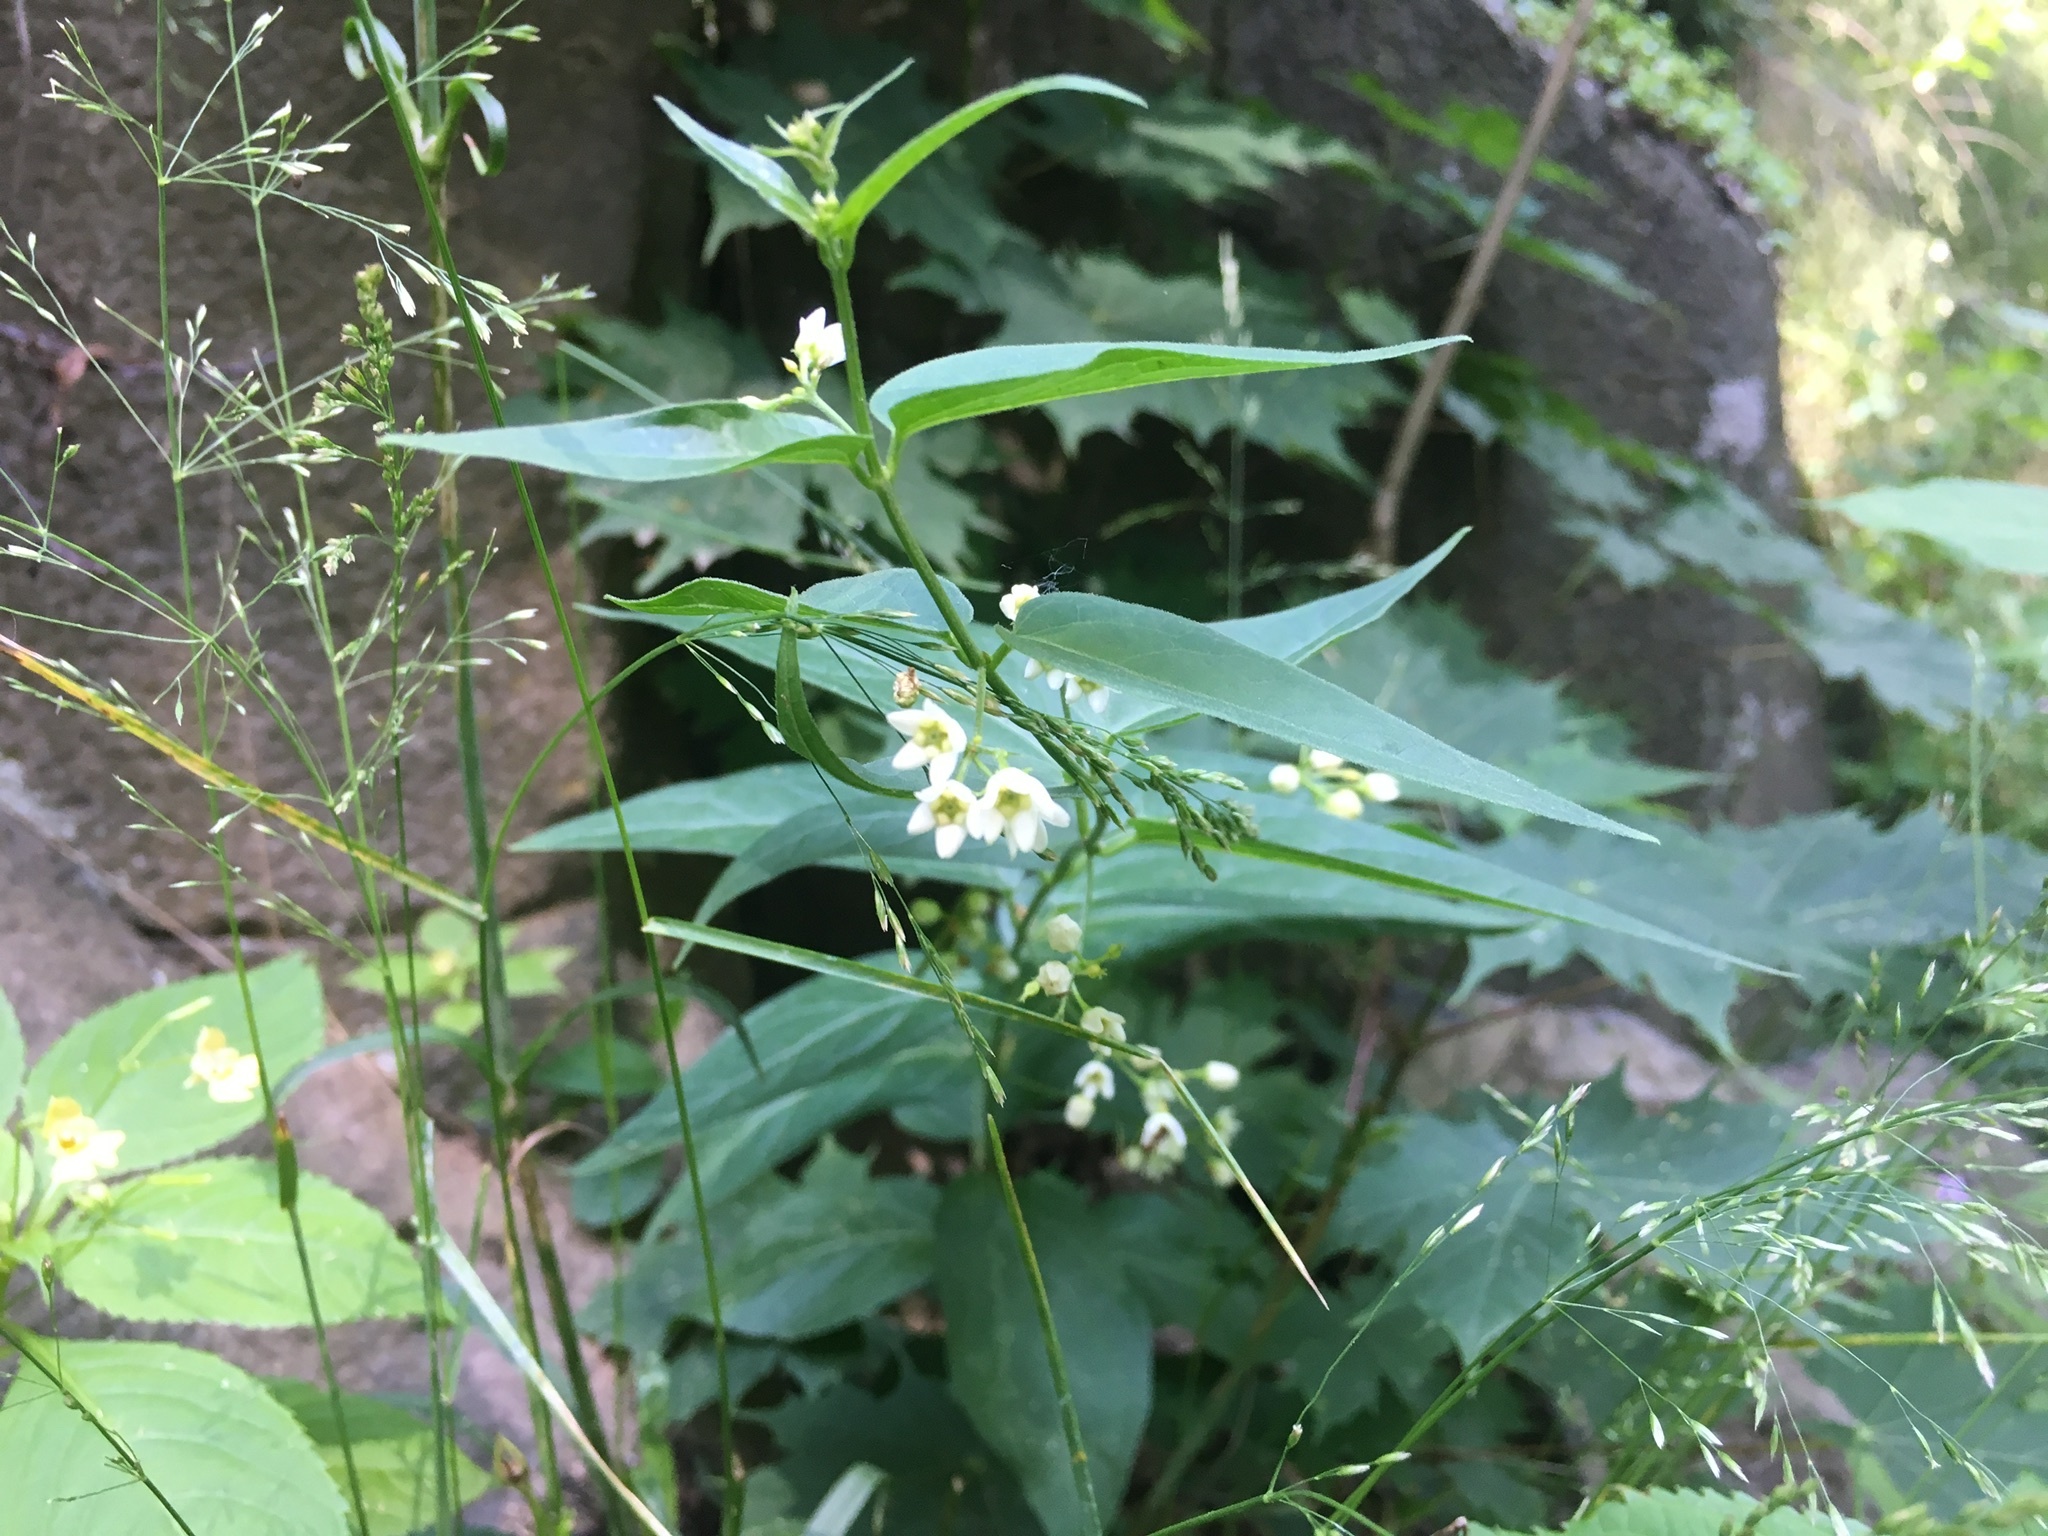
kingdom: Plantae
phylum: Tracheophyta
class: Magnoliopsida
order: Gentianales
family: Apocynaceae
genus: Vincetoxicum
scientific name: Vincetoxicum hirundinaria
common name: White swallowwort
